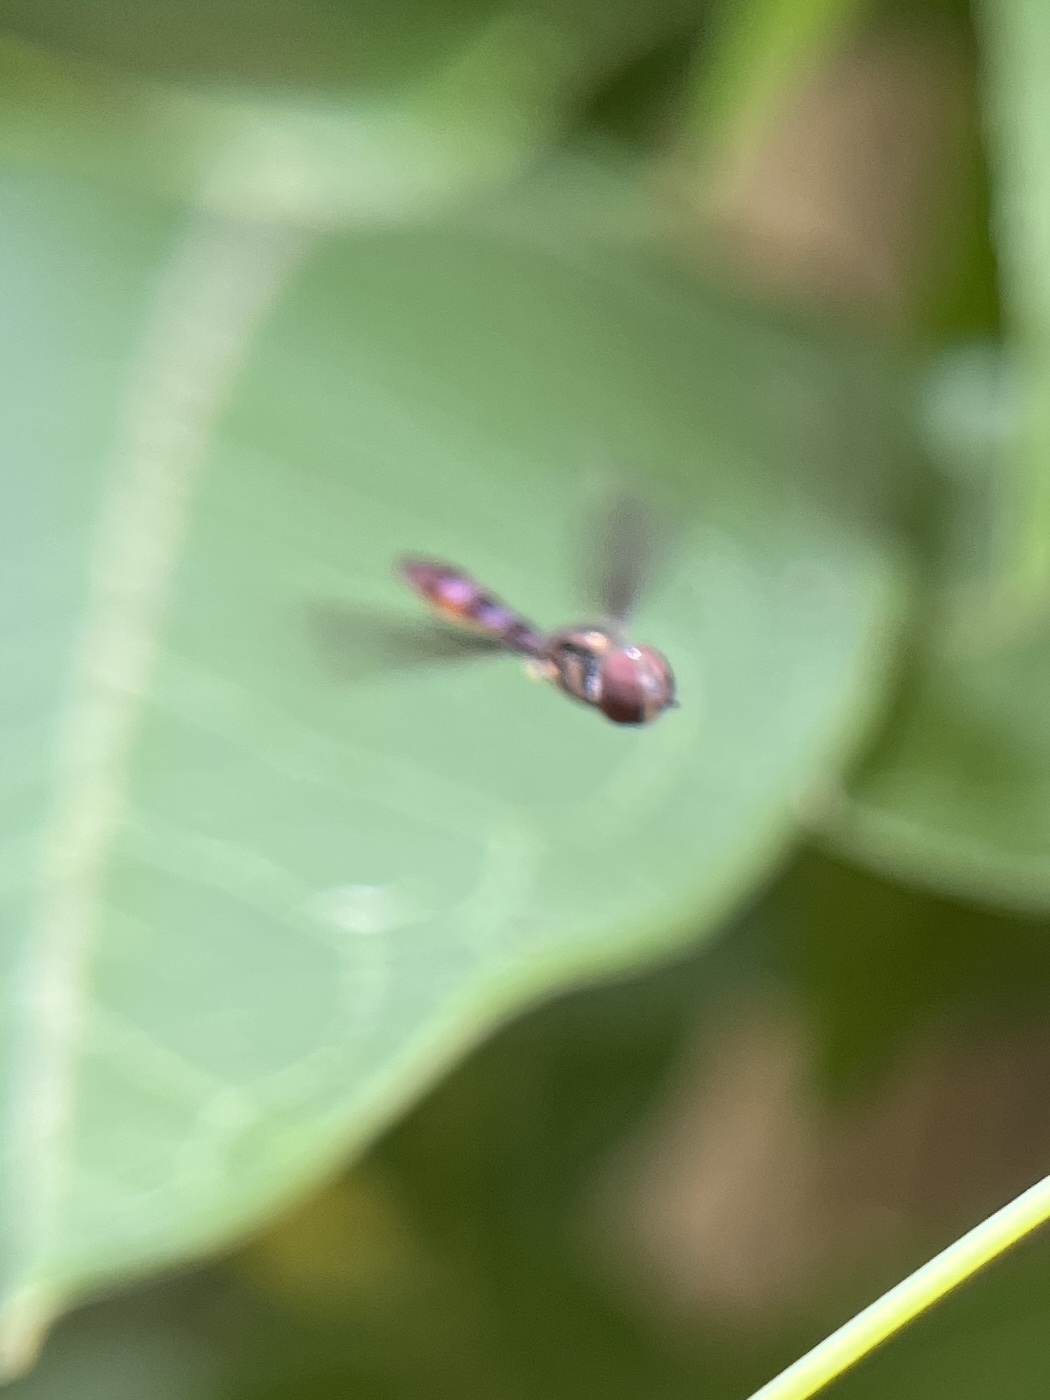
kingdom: Animalia
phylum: Arthropoda
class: Insecta
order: Diptera
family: Syrphidae
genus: Ocyptamus
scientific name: Ocyptamus fuscipennis
